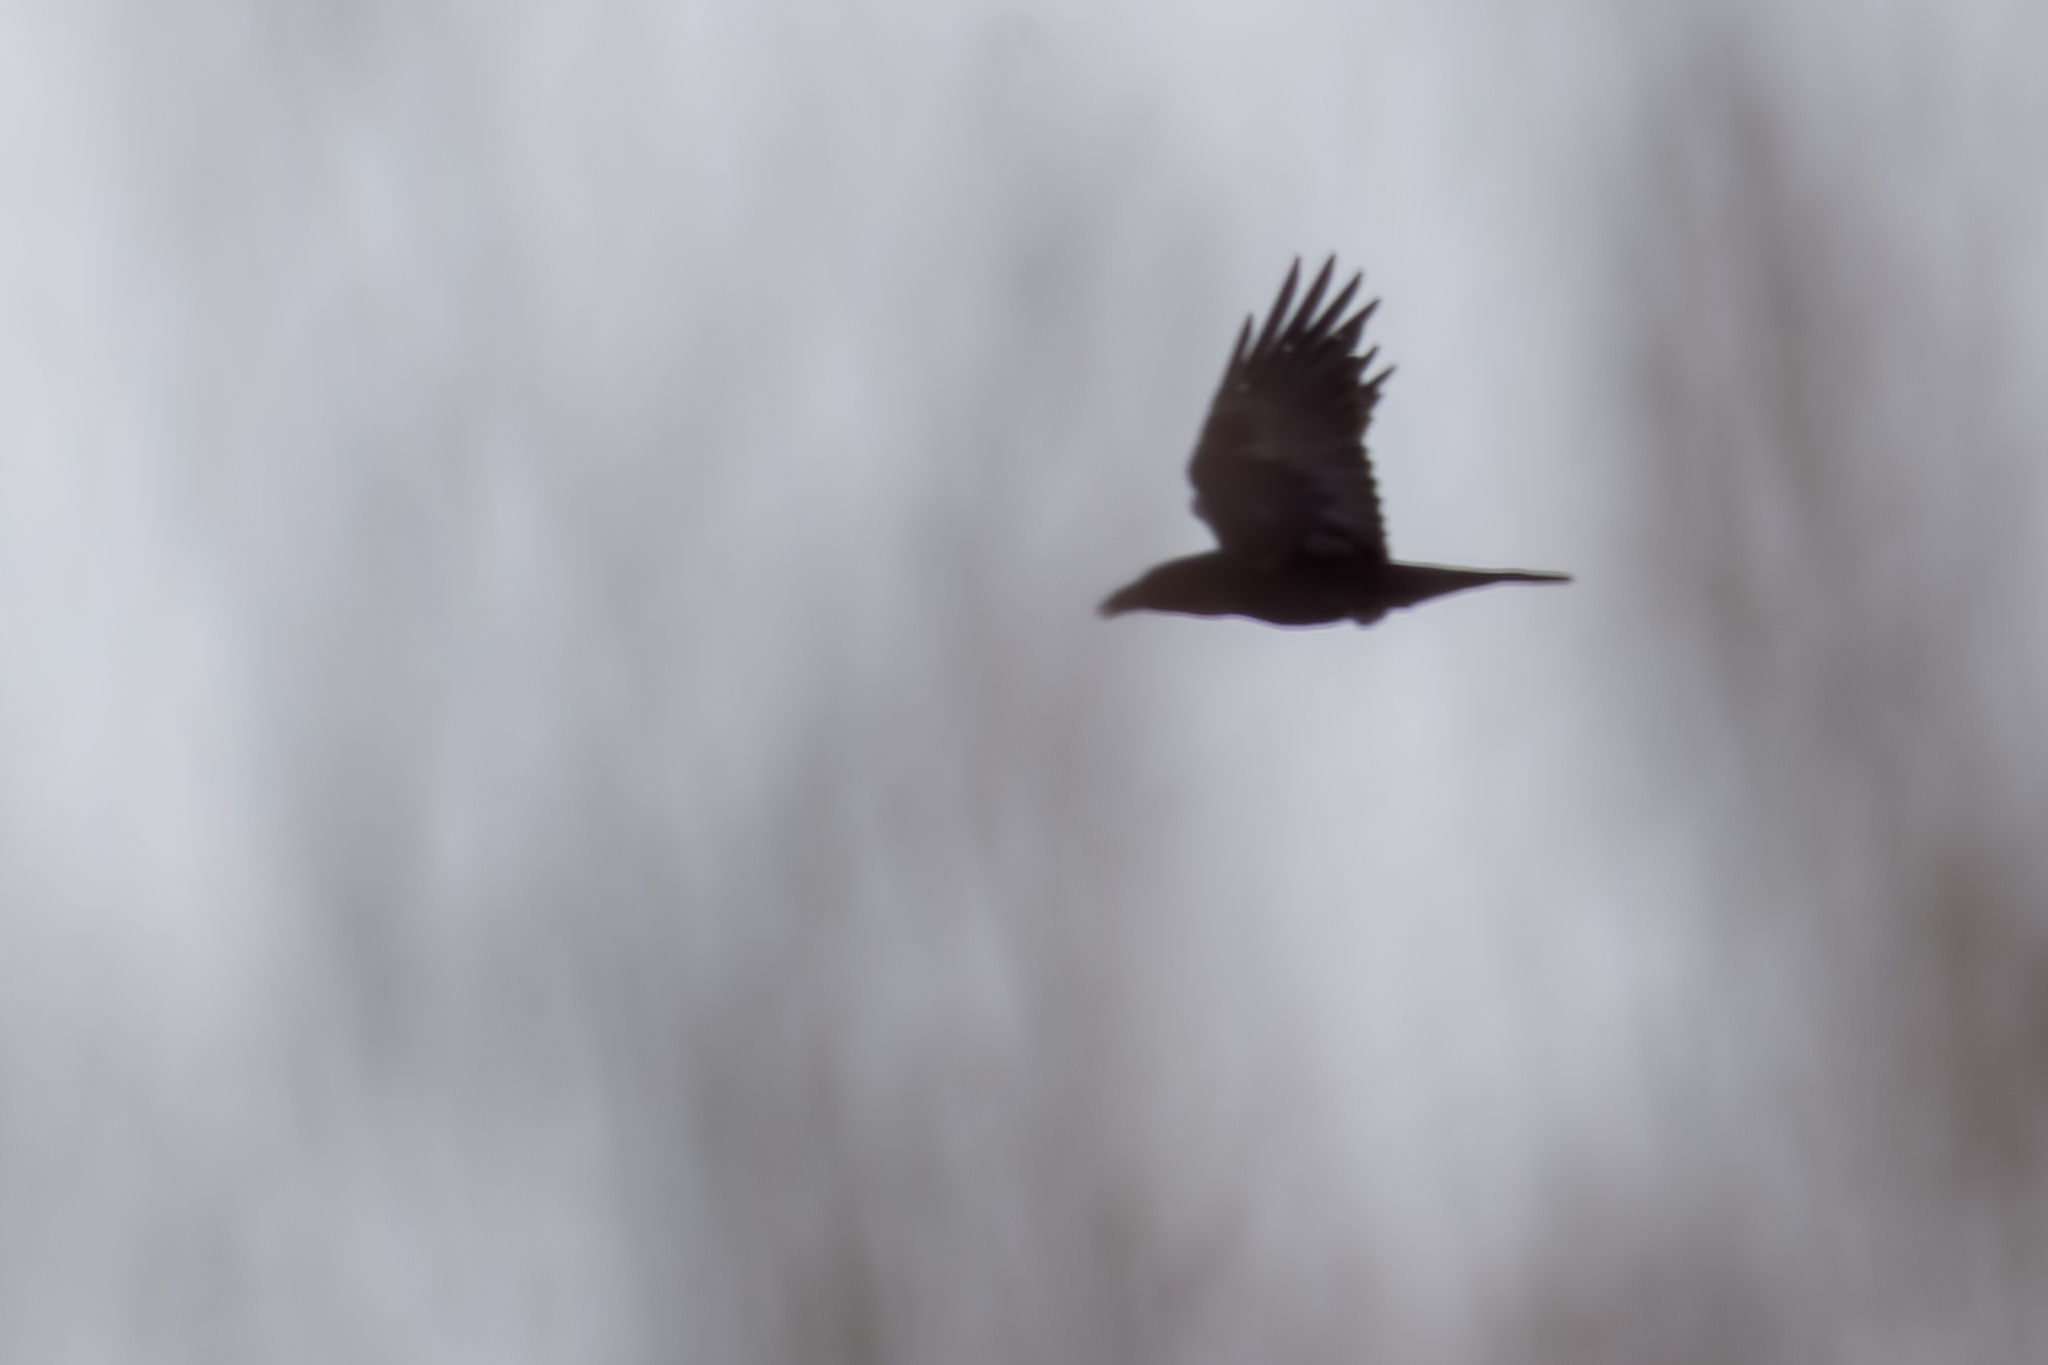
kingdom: Animalia
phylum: Chordata
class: Aves
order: Passeriformes
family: Corvidae
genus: Corvus
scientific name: Corvus corax
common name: Common raven
